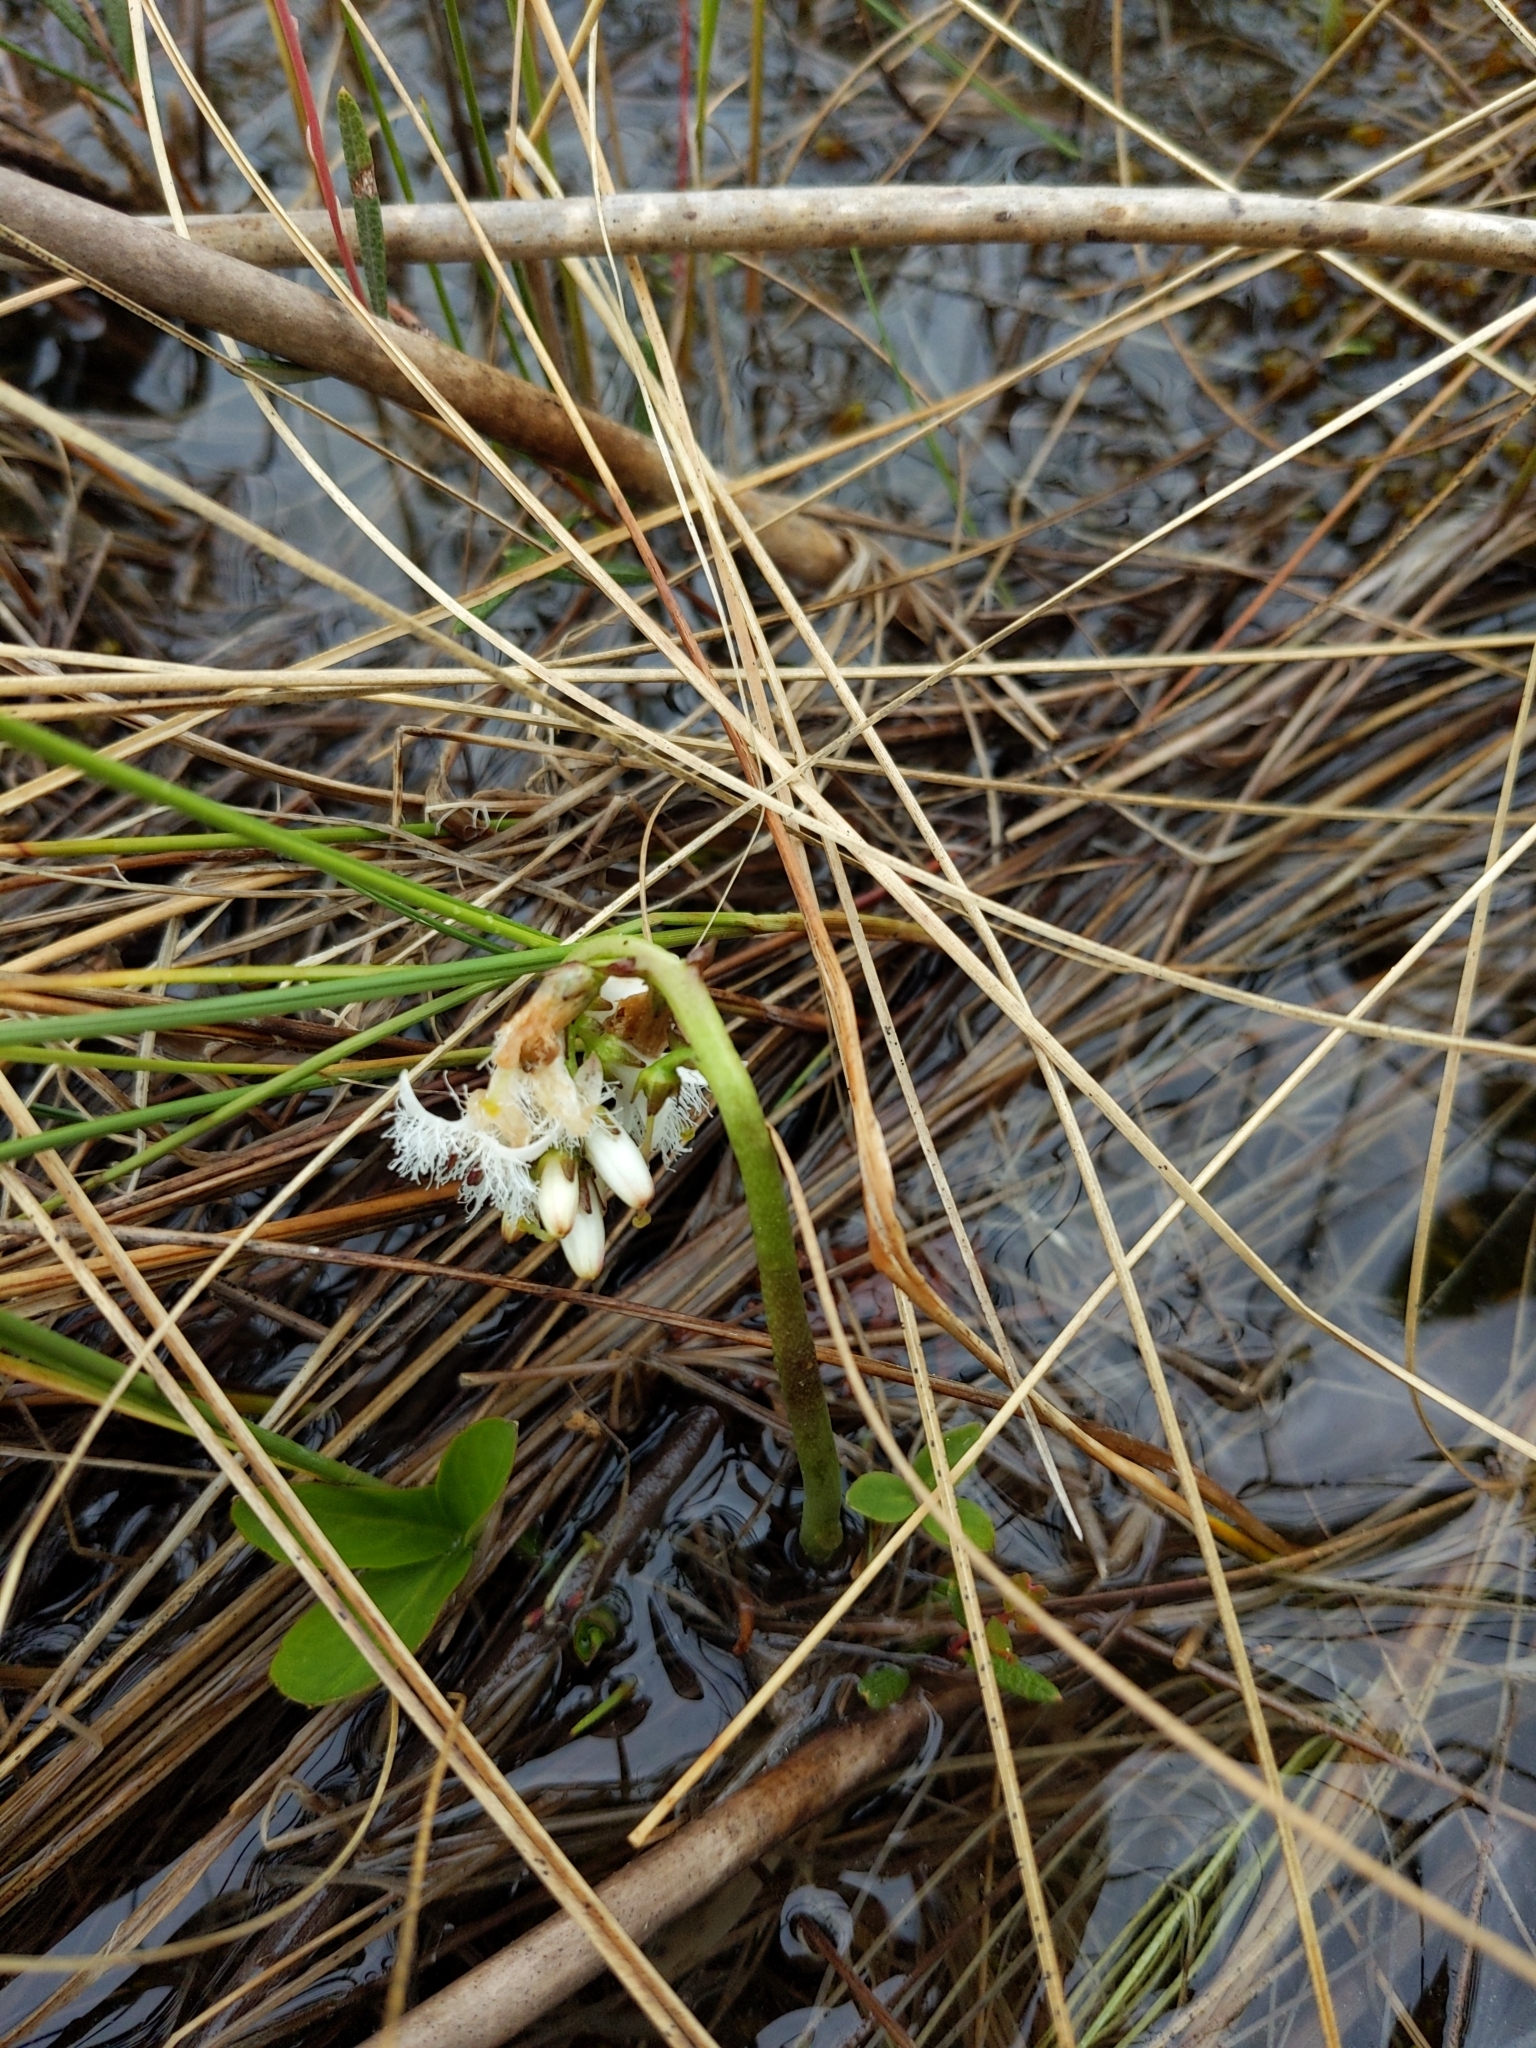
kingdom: Plantae
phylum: Tracheophyta
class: Magnoliopsida
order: Asterales
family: Menyanthaceae
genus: Menyanthes
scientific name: Menyanthes trifoliata
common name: Bogbean
